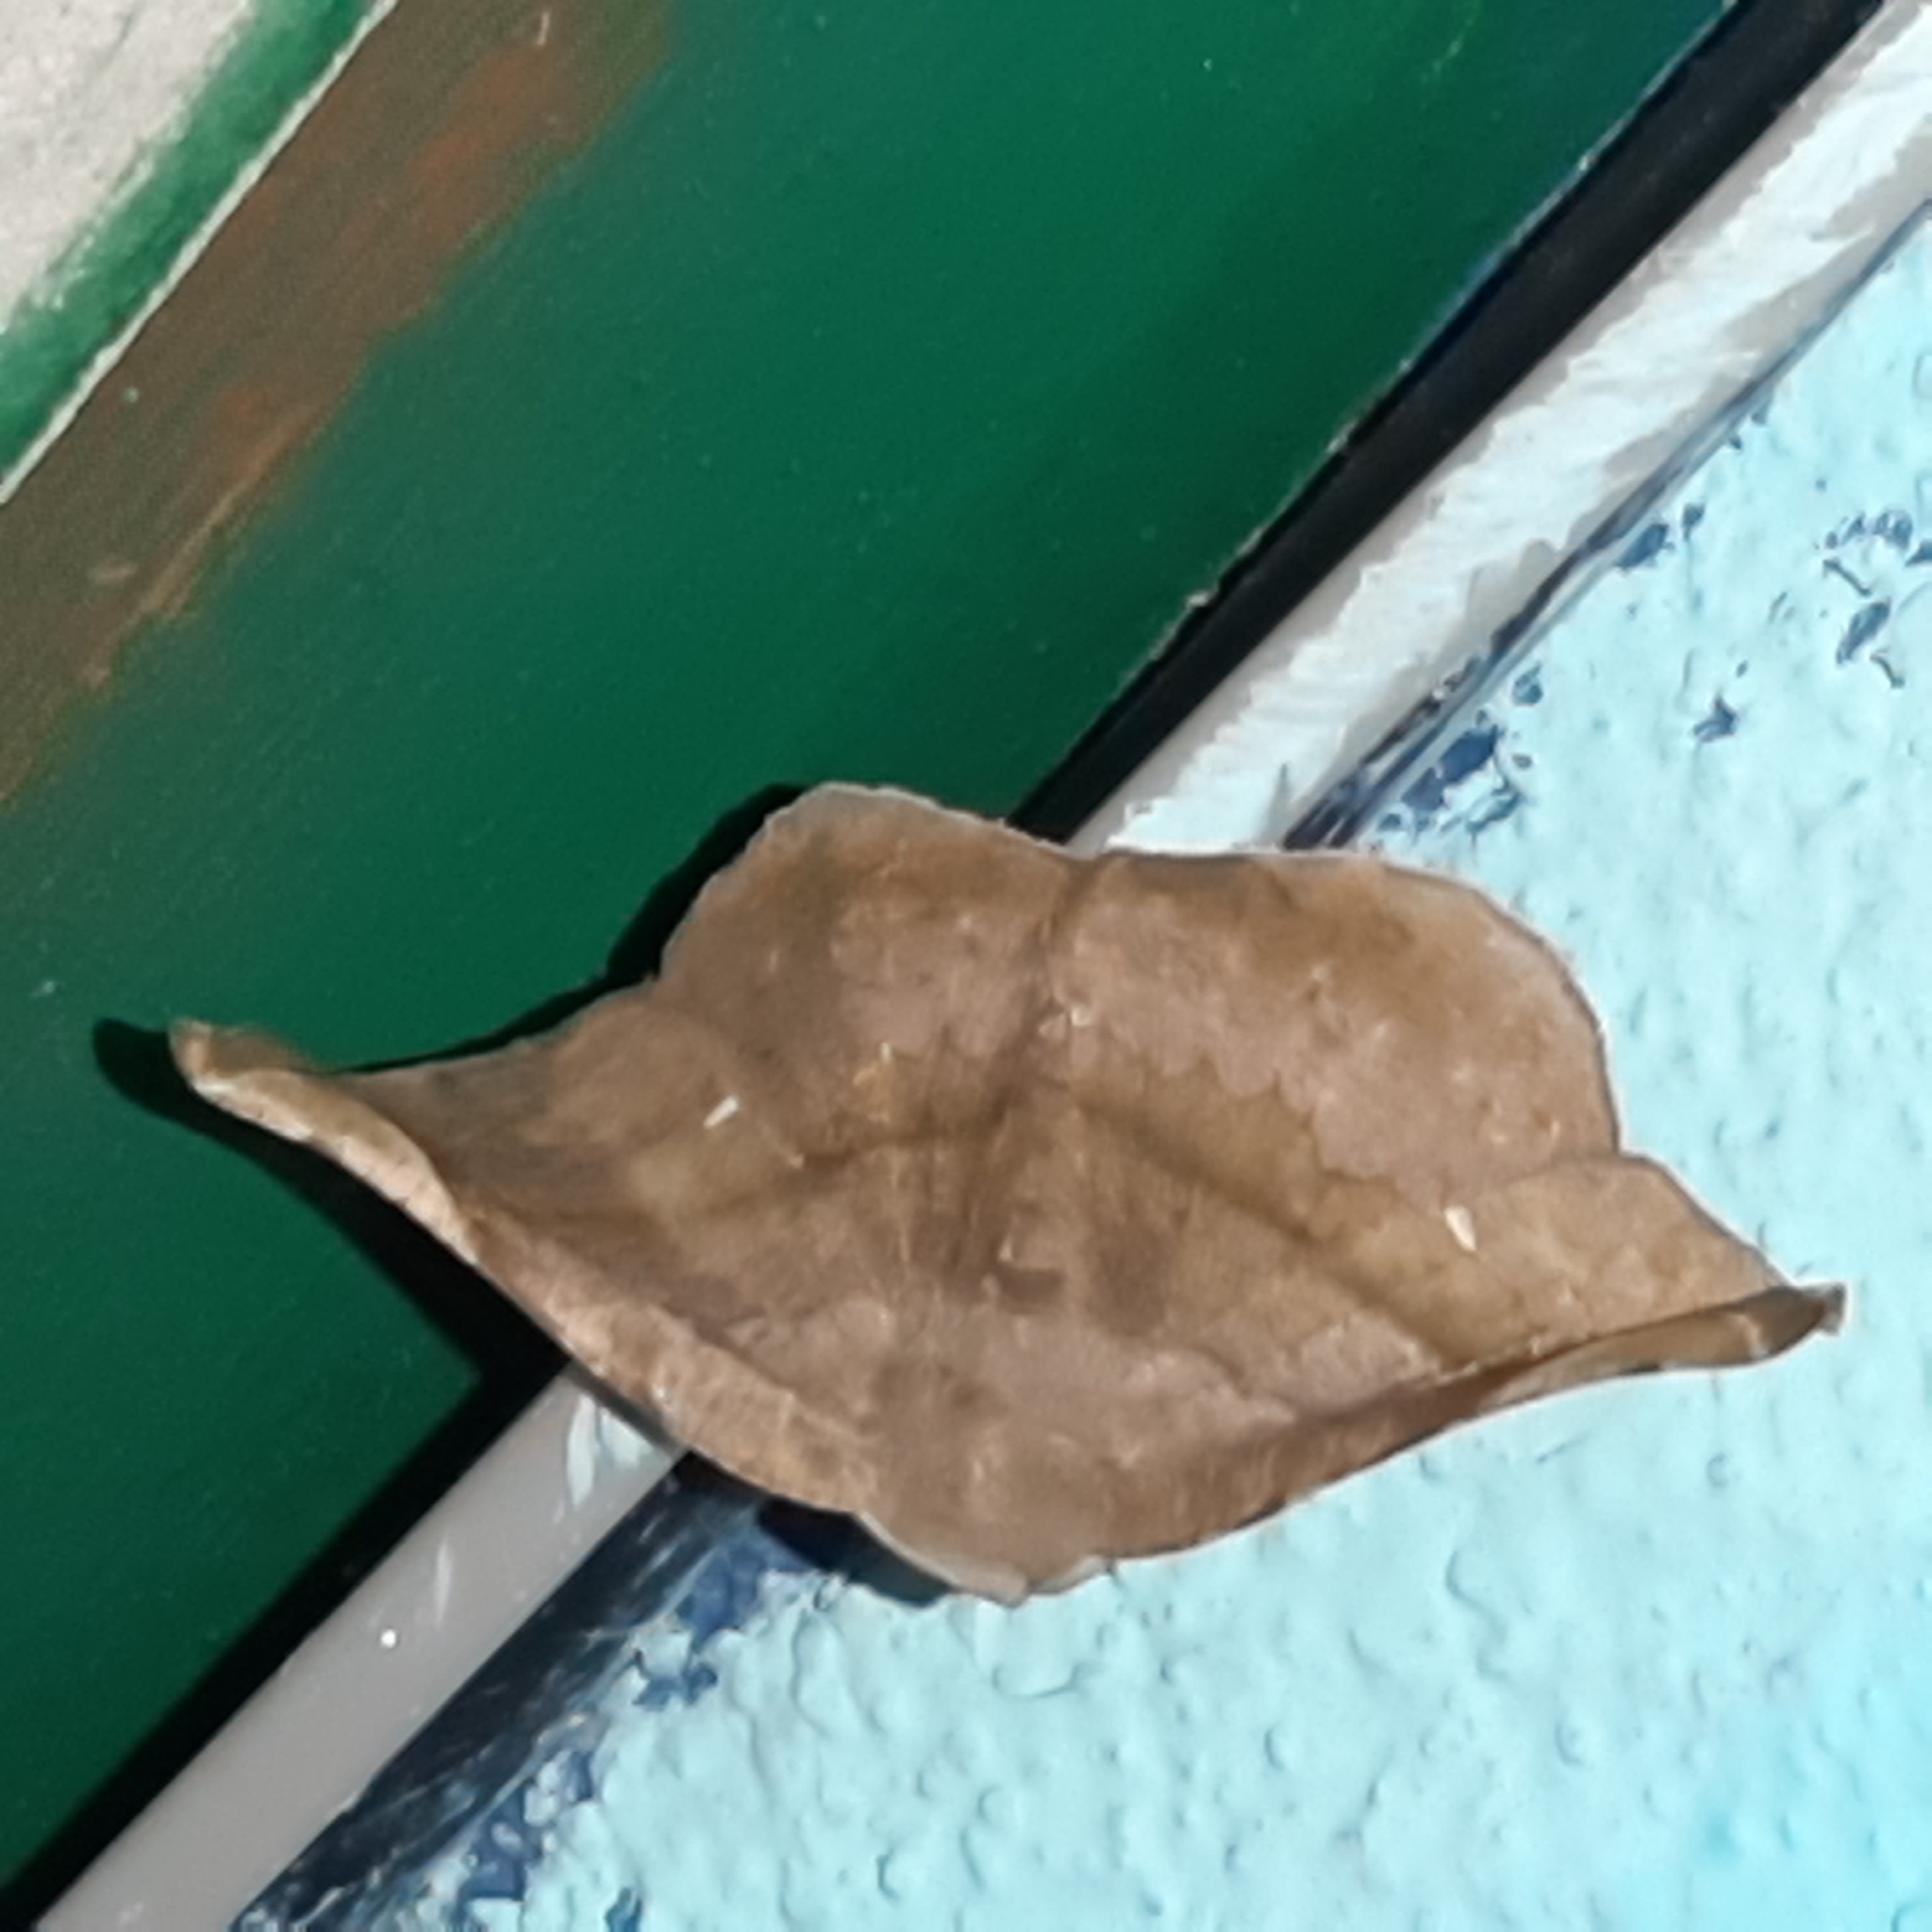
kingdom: Animalia
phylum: Arthropoda
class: Insecta
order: Lepidoptera
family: Geometridae
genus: Hygrochroma
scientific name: Hygrochroma nondina
